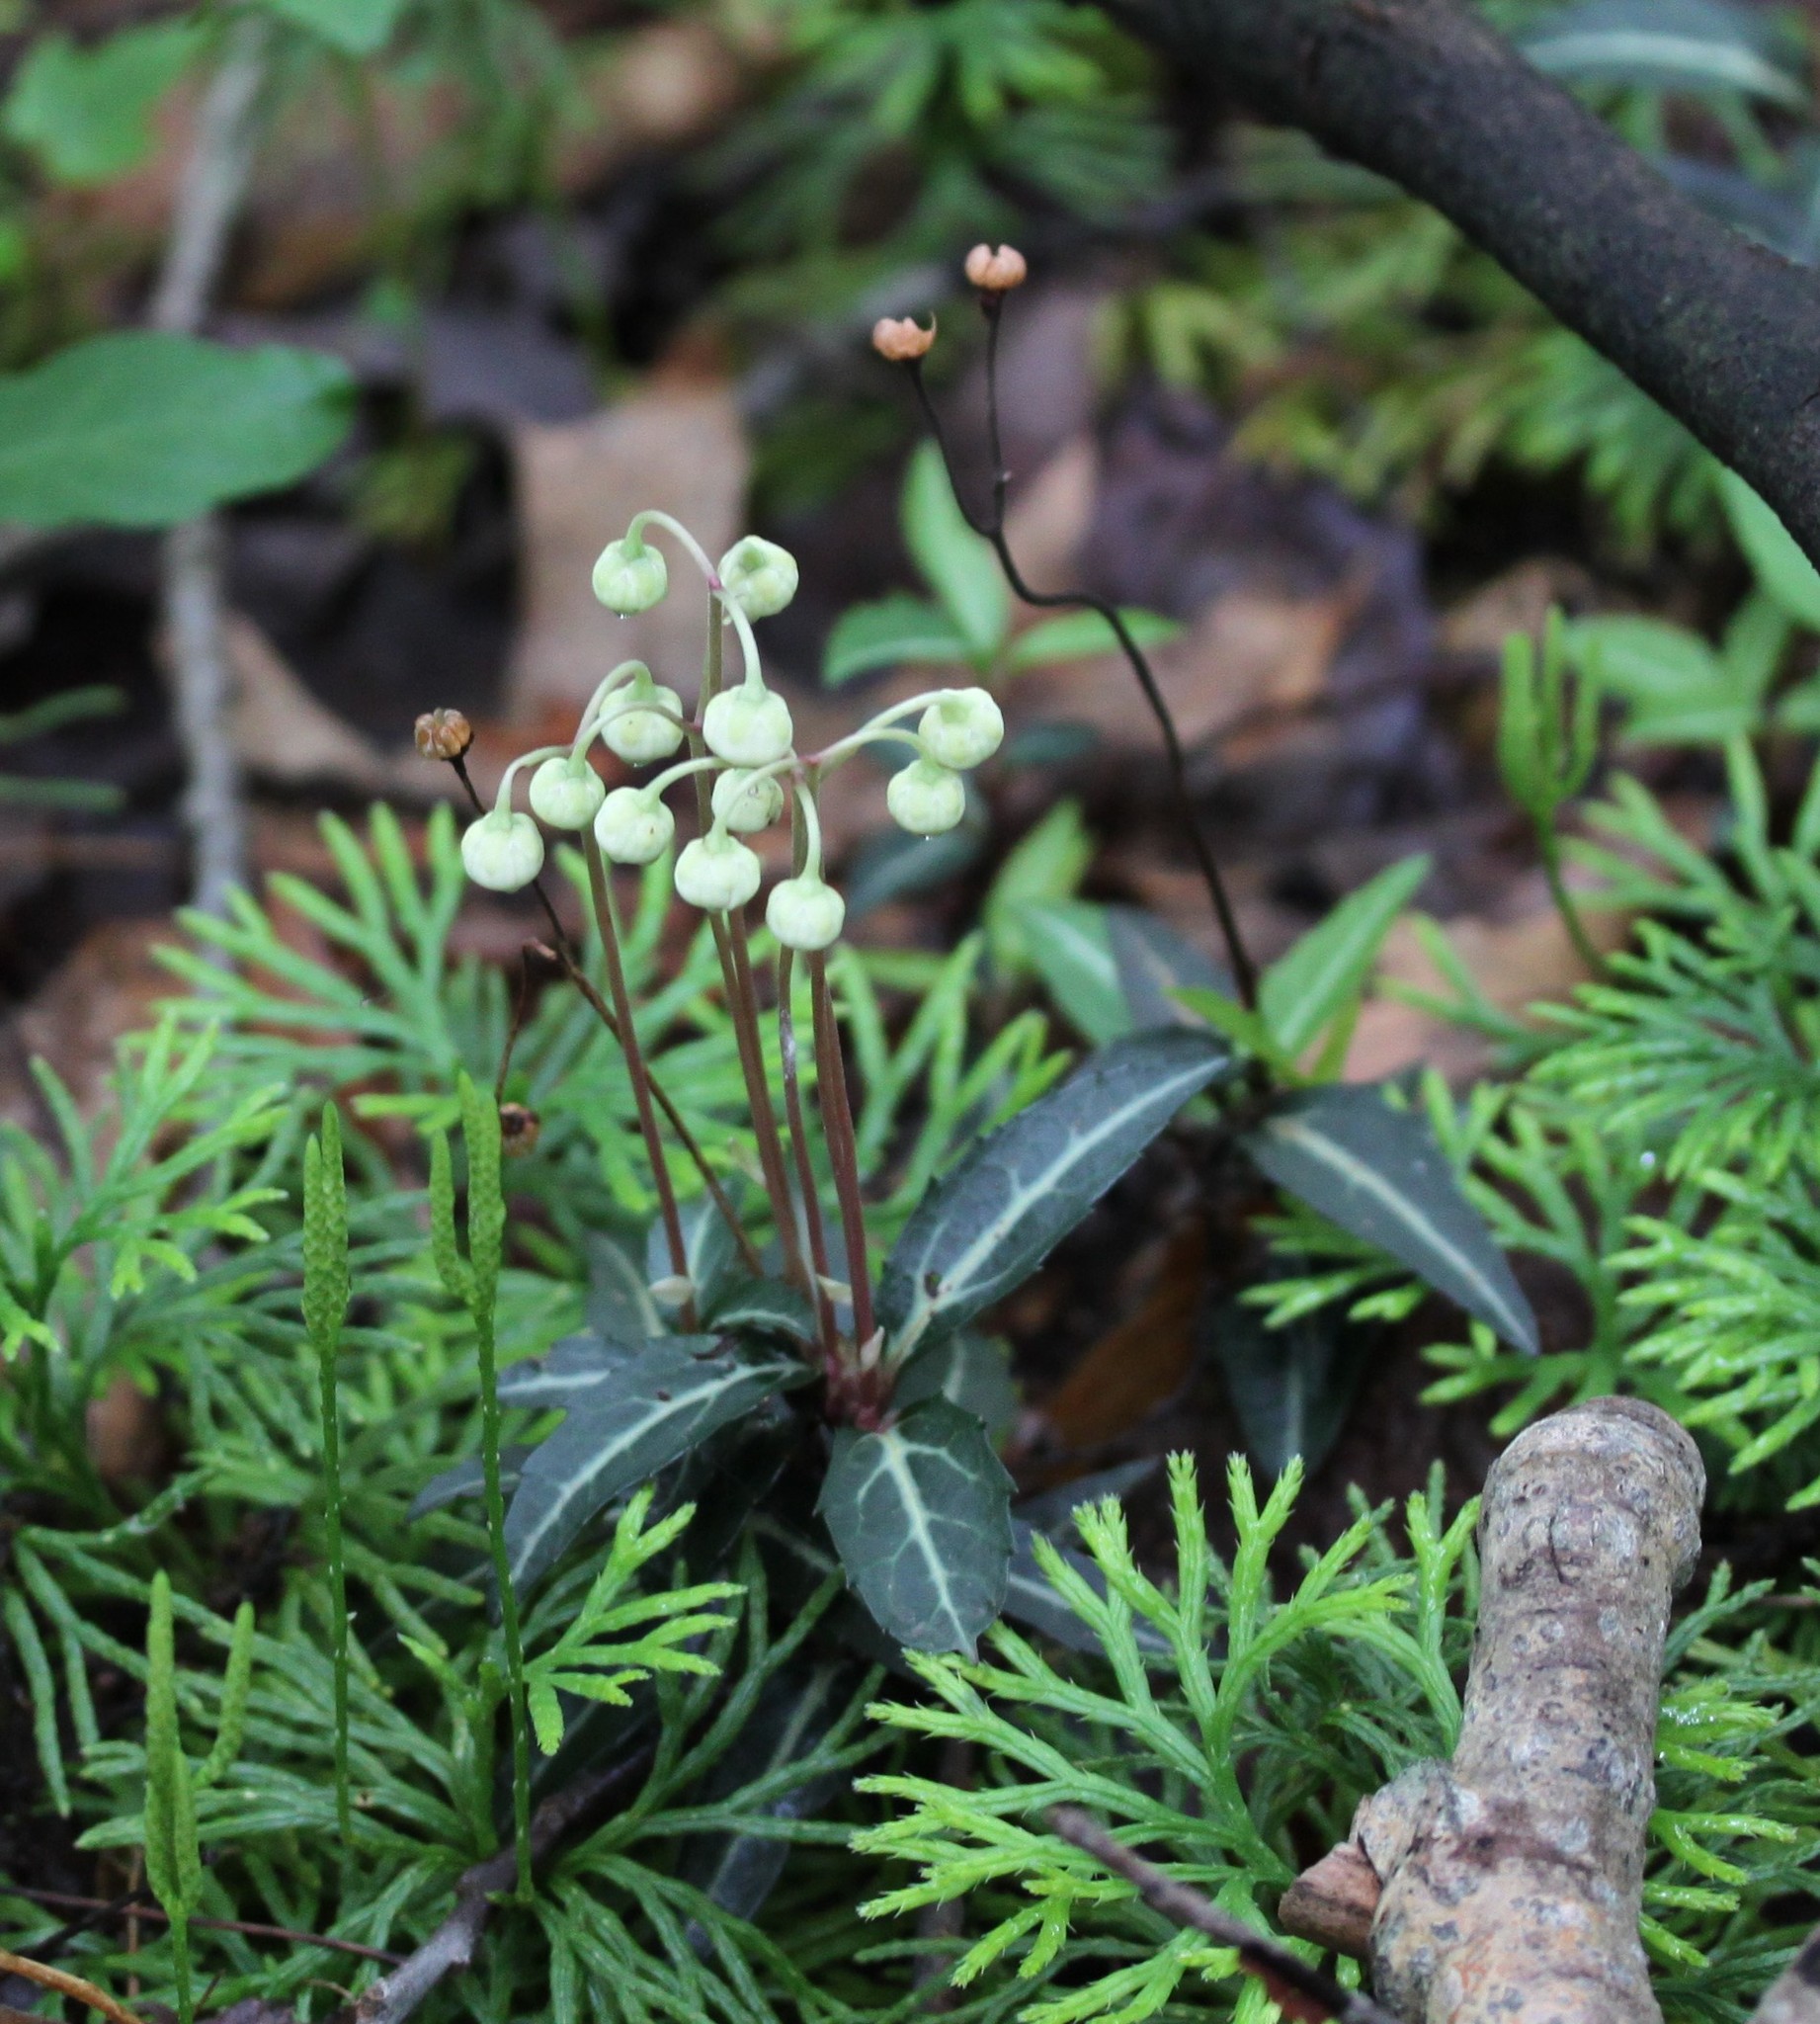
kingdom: Plantae
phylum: Tracheophyta
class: Magnoliopsida
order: Ericales
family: Ericaceae
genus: Chimaphila
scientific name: Chimaphila maculata
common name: Spotted pipsissewa
